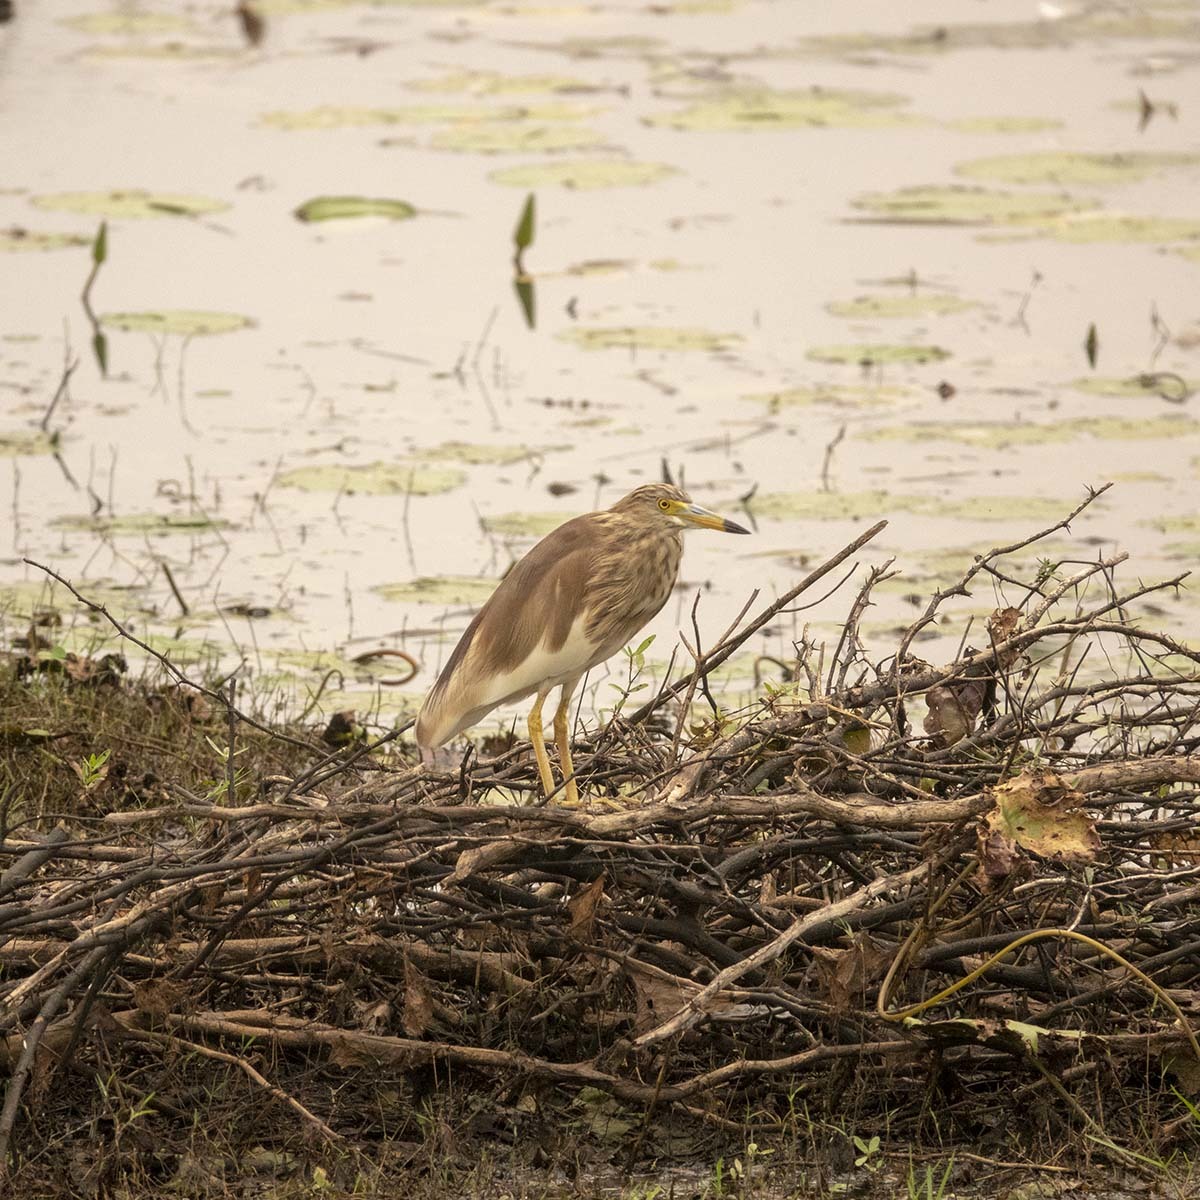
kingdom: Animalia
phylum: Chordata
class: Aves
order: Pelecaniformes
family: Ardeidae
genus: Ardeola
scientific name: Ardeola grayii
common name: Indian pond heron
